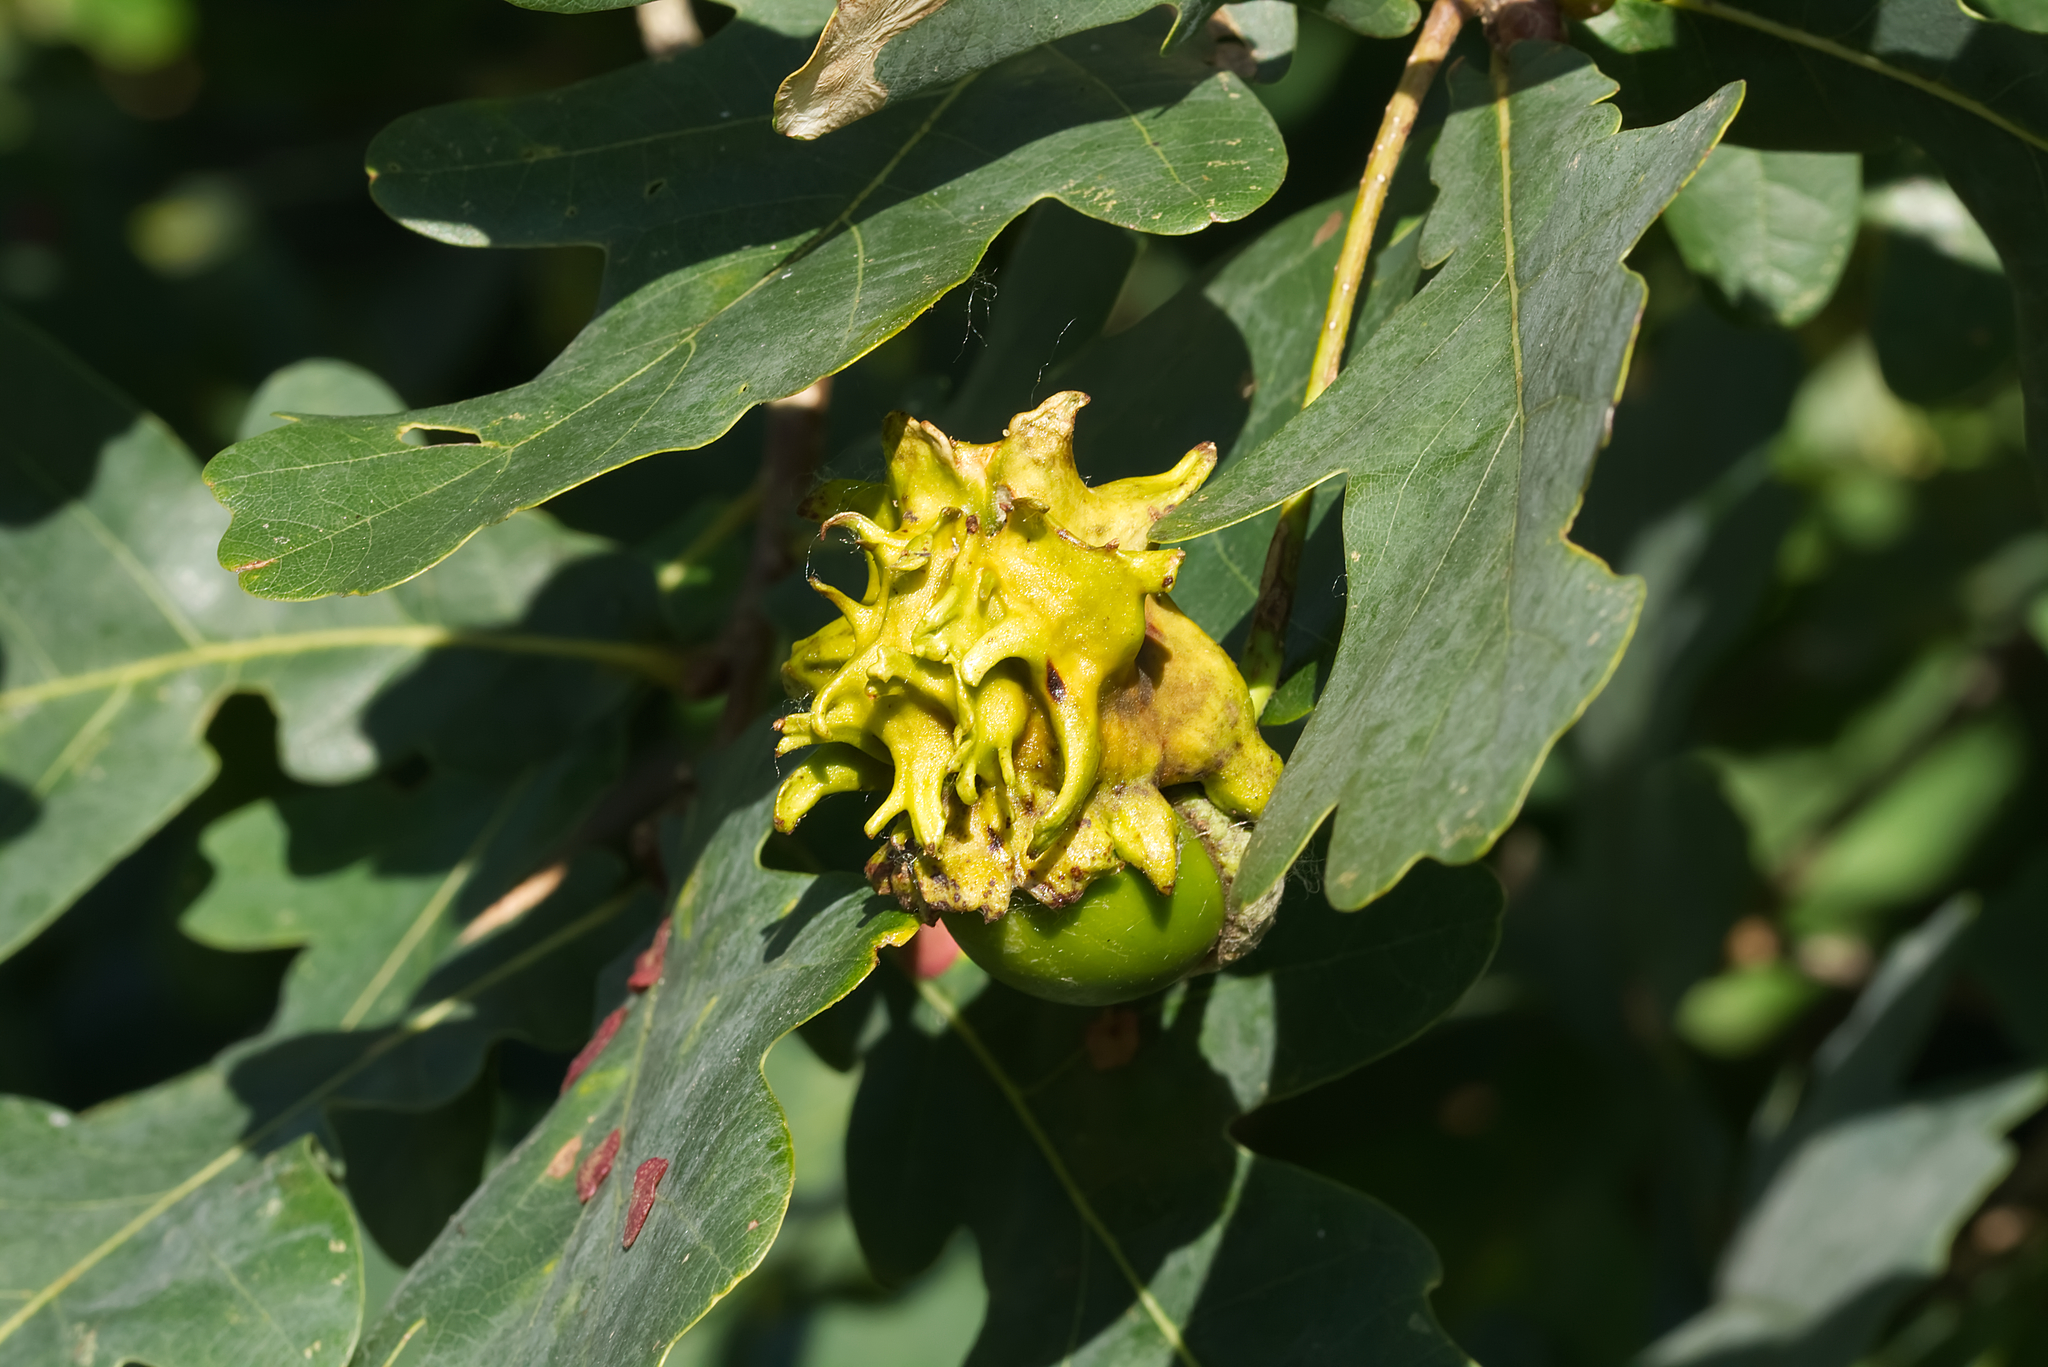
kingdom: Animalia
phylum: Arthropoda
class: Insecta
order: Hymenoptera
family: Cynipidae
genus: Andricus
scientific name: Andricus quercuscalicis
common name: Knopper gall
